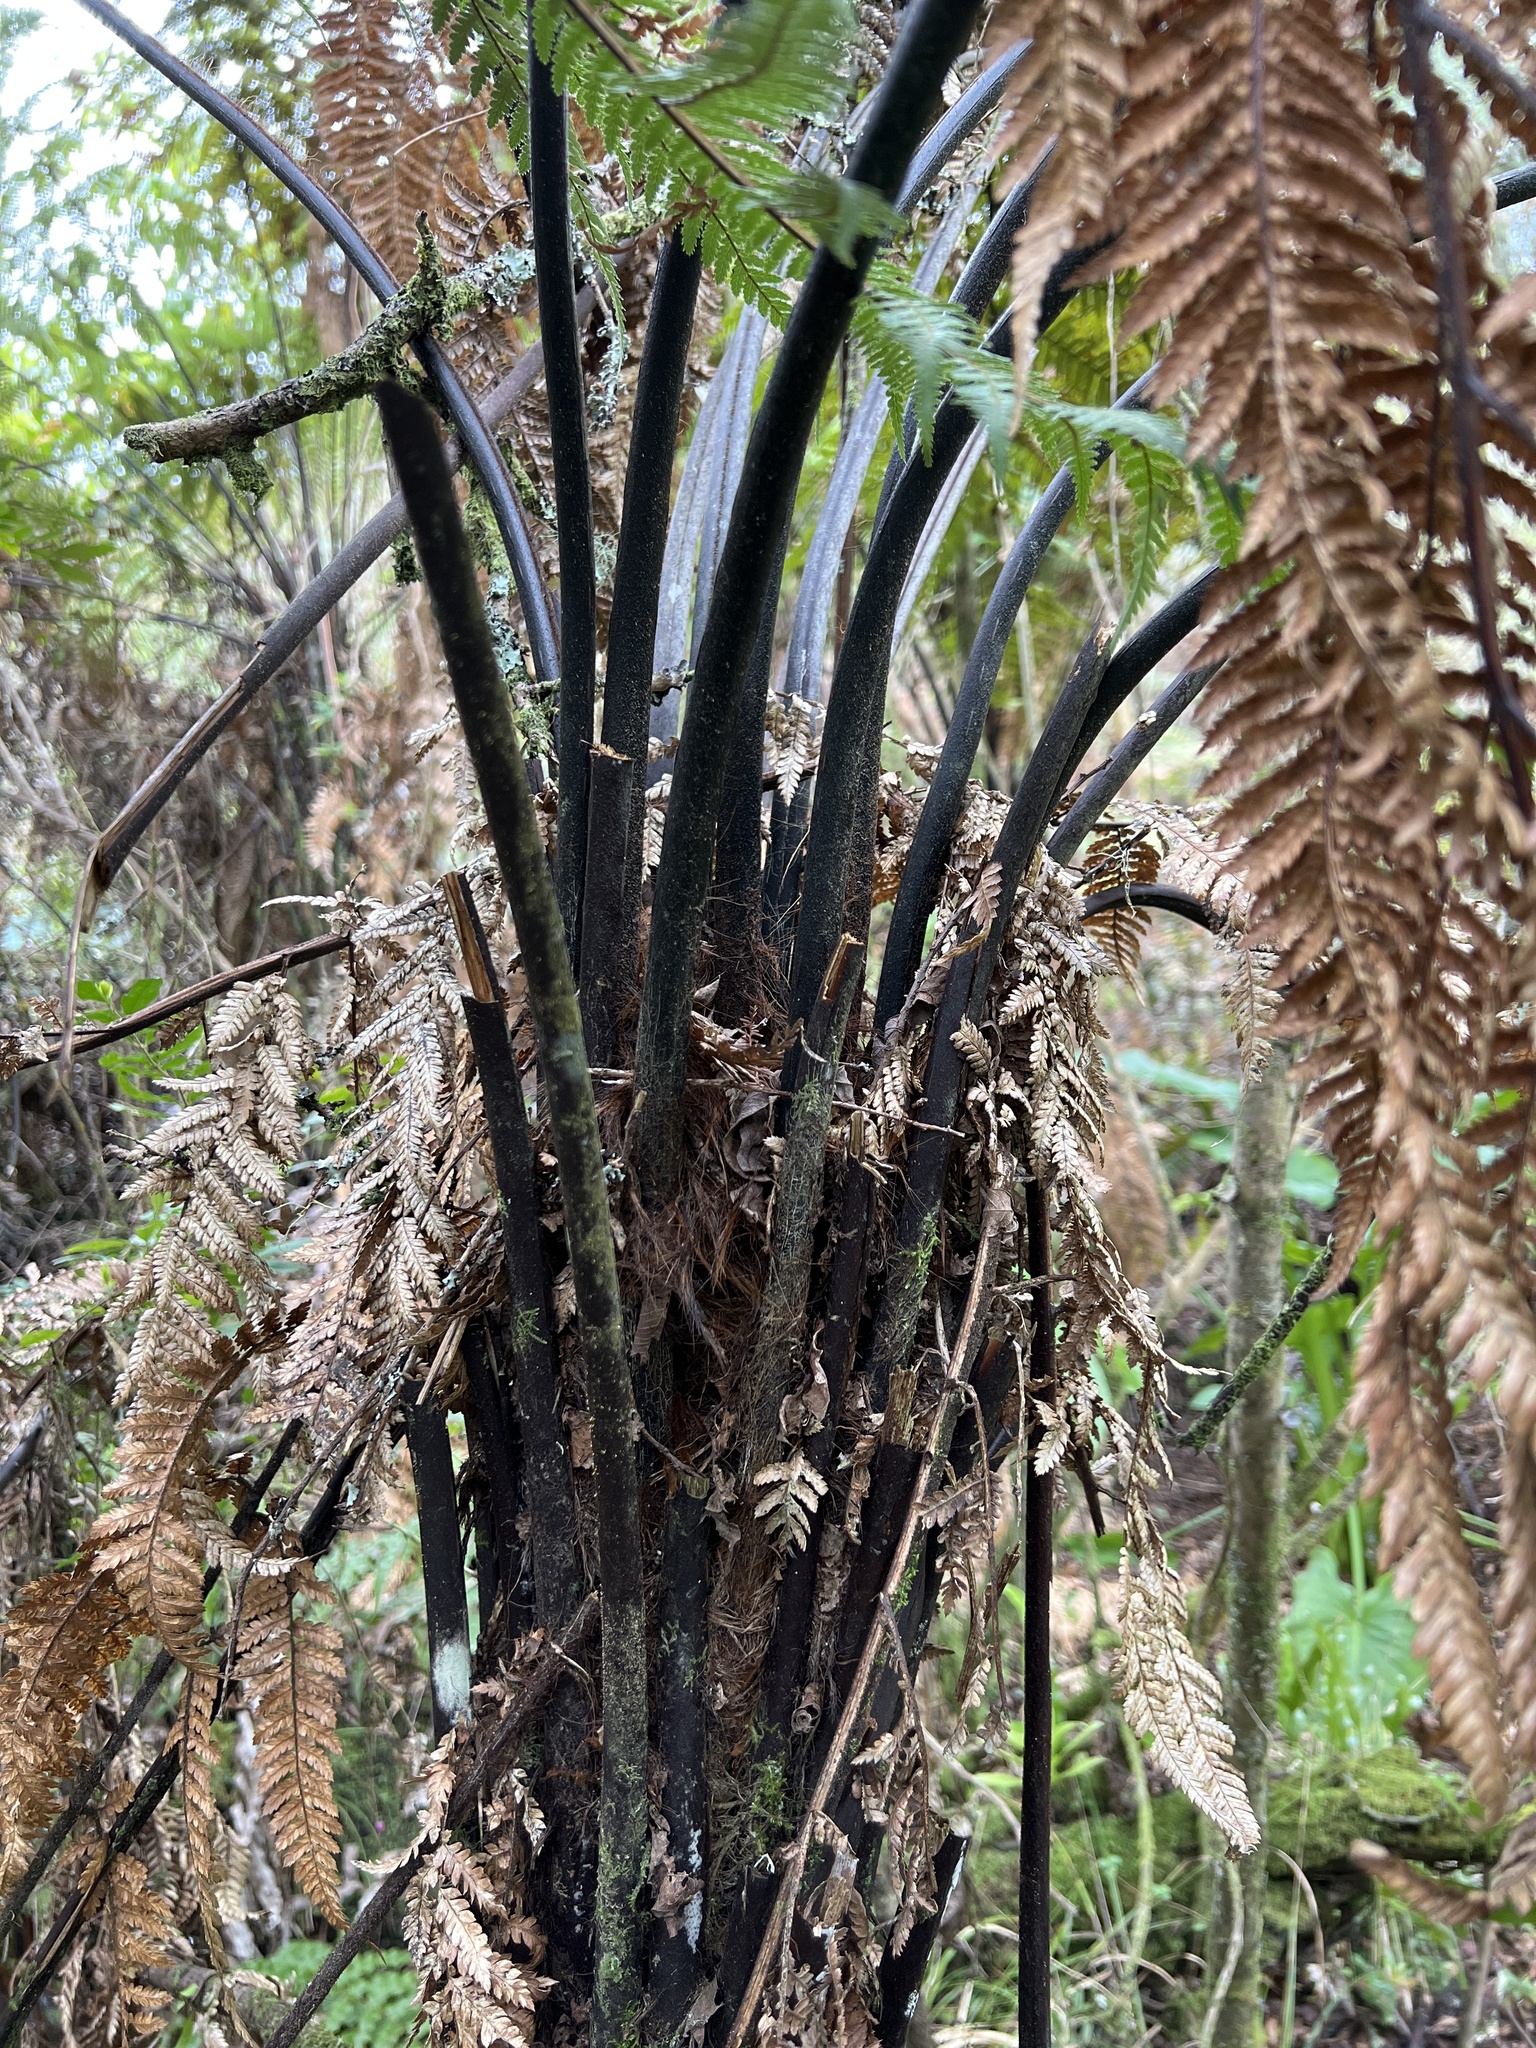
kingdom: Plantae
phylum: Tracheophyta
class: Polypodiopsida
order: Cyatheales
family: Dicksoniaceae
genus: Dicksonia
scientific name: Dicksonia squarrosa
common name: Hard treefern
